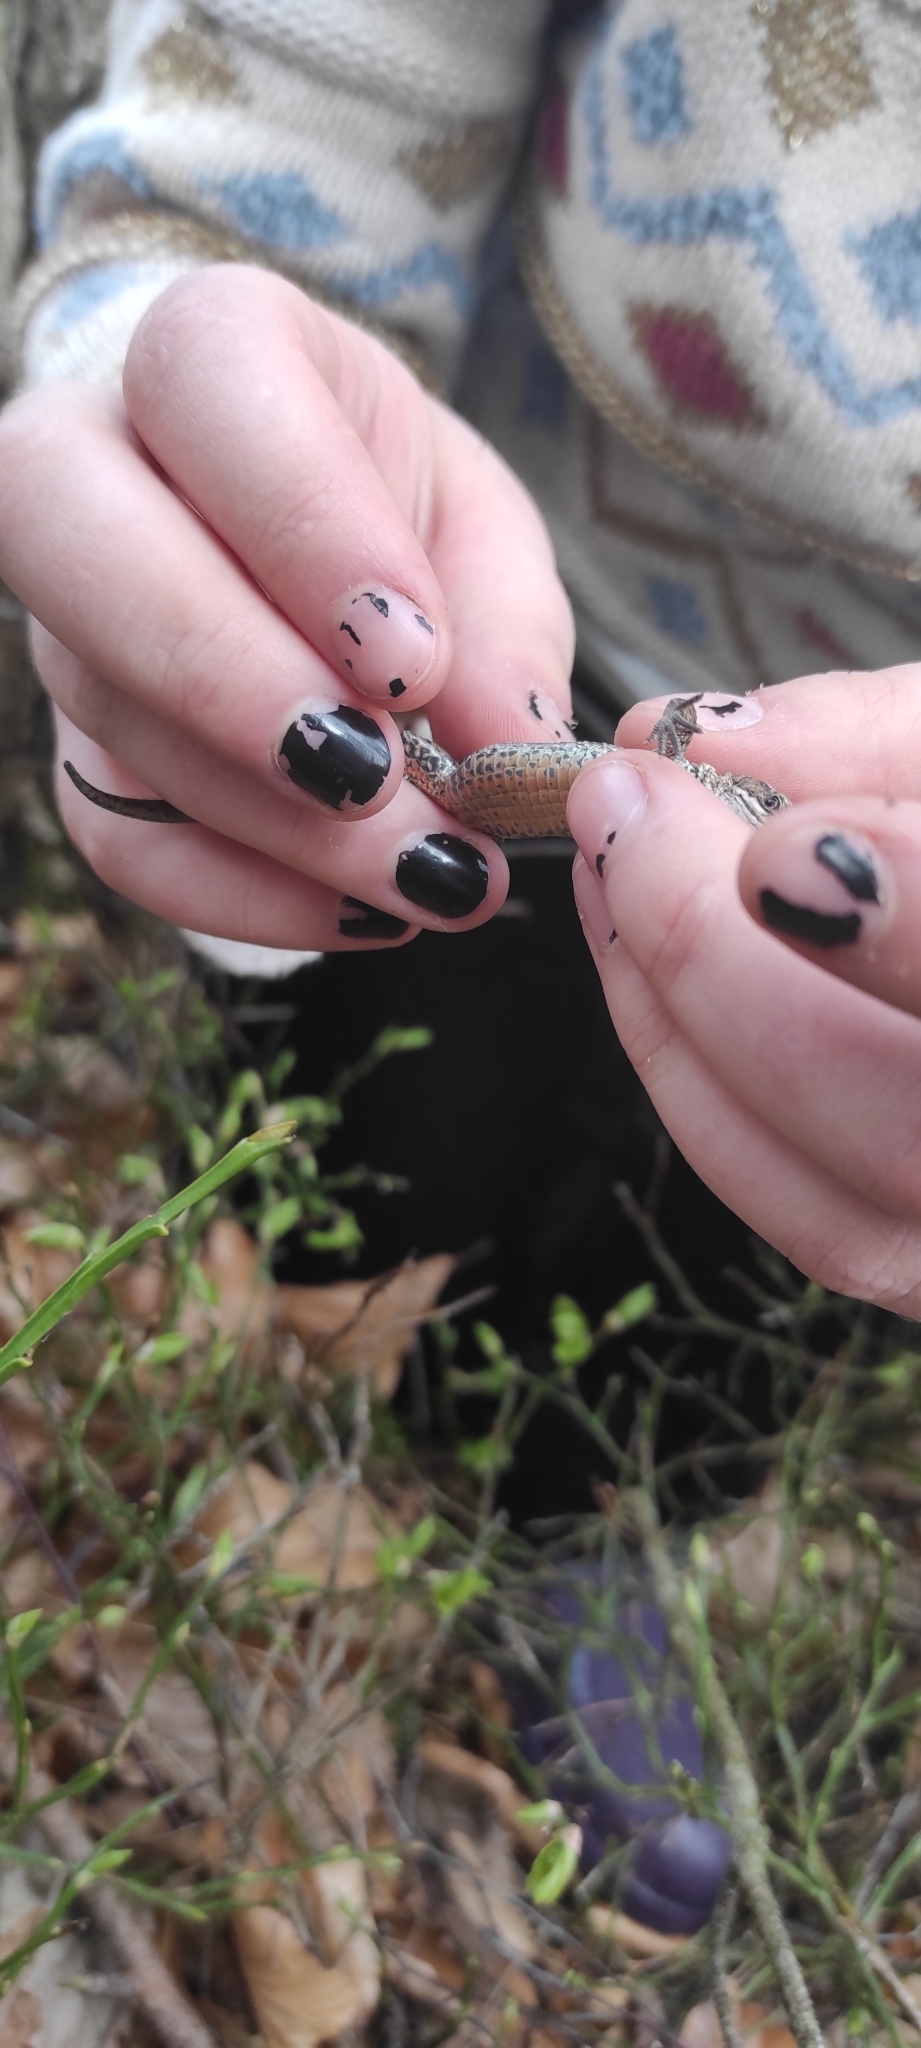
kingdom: Animalia
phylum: Chordata
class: Squamata
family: Lacertidae
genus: Zootoca
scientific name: Zootoca vivipara
